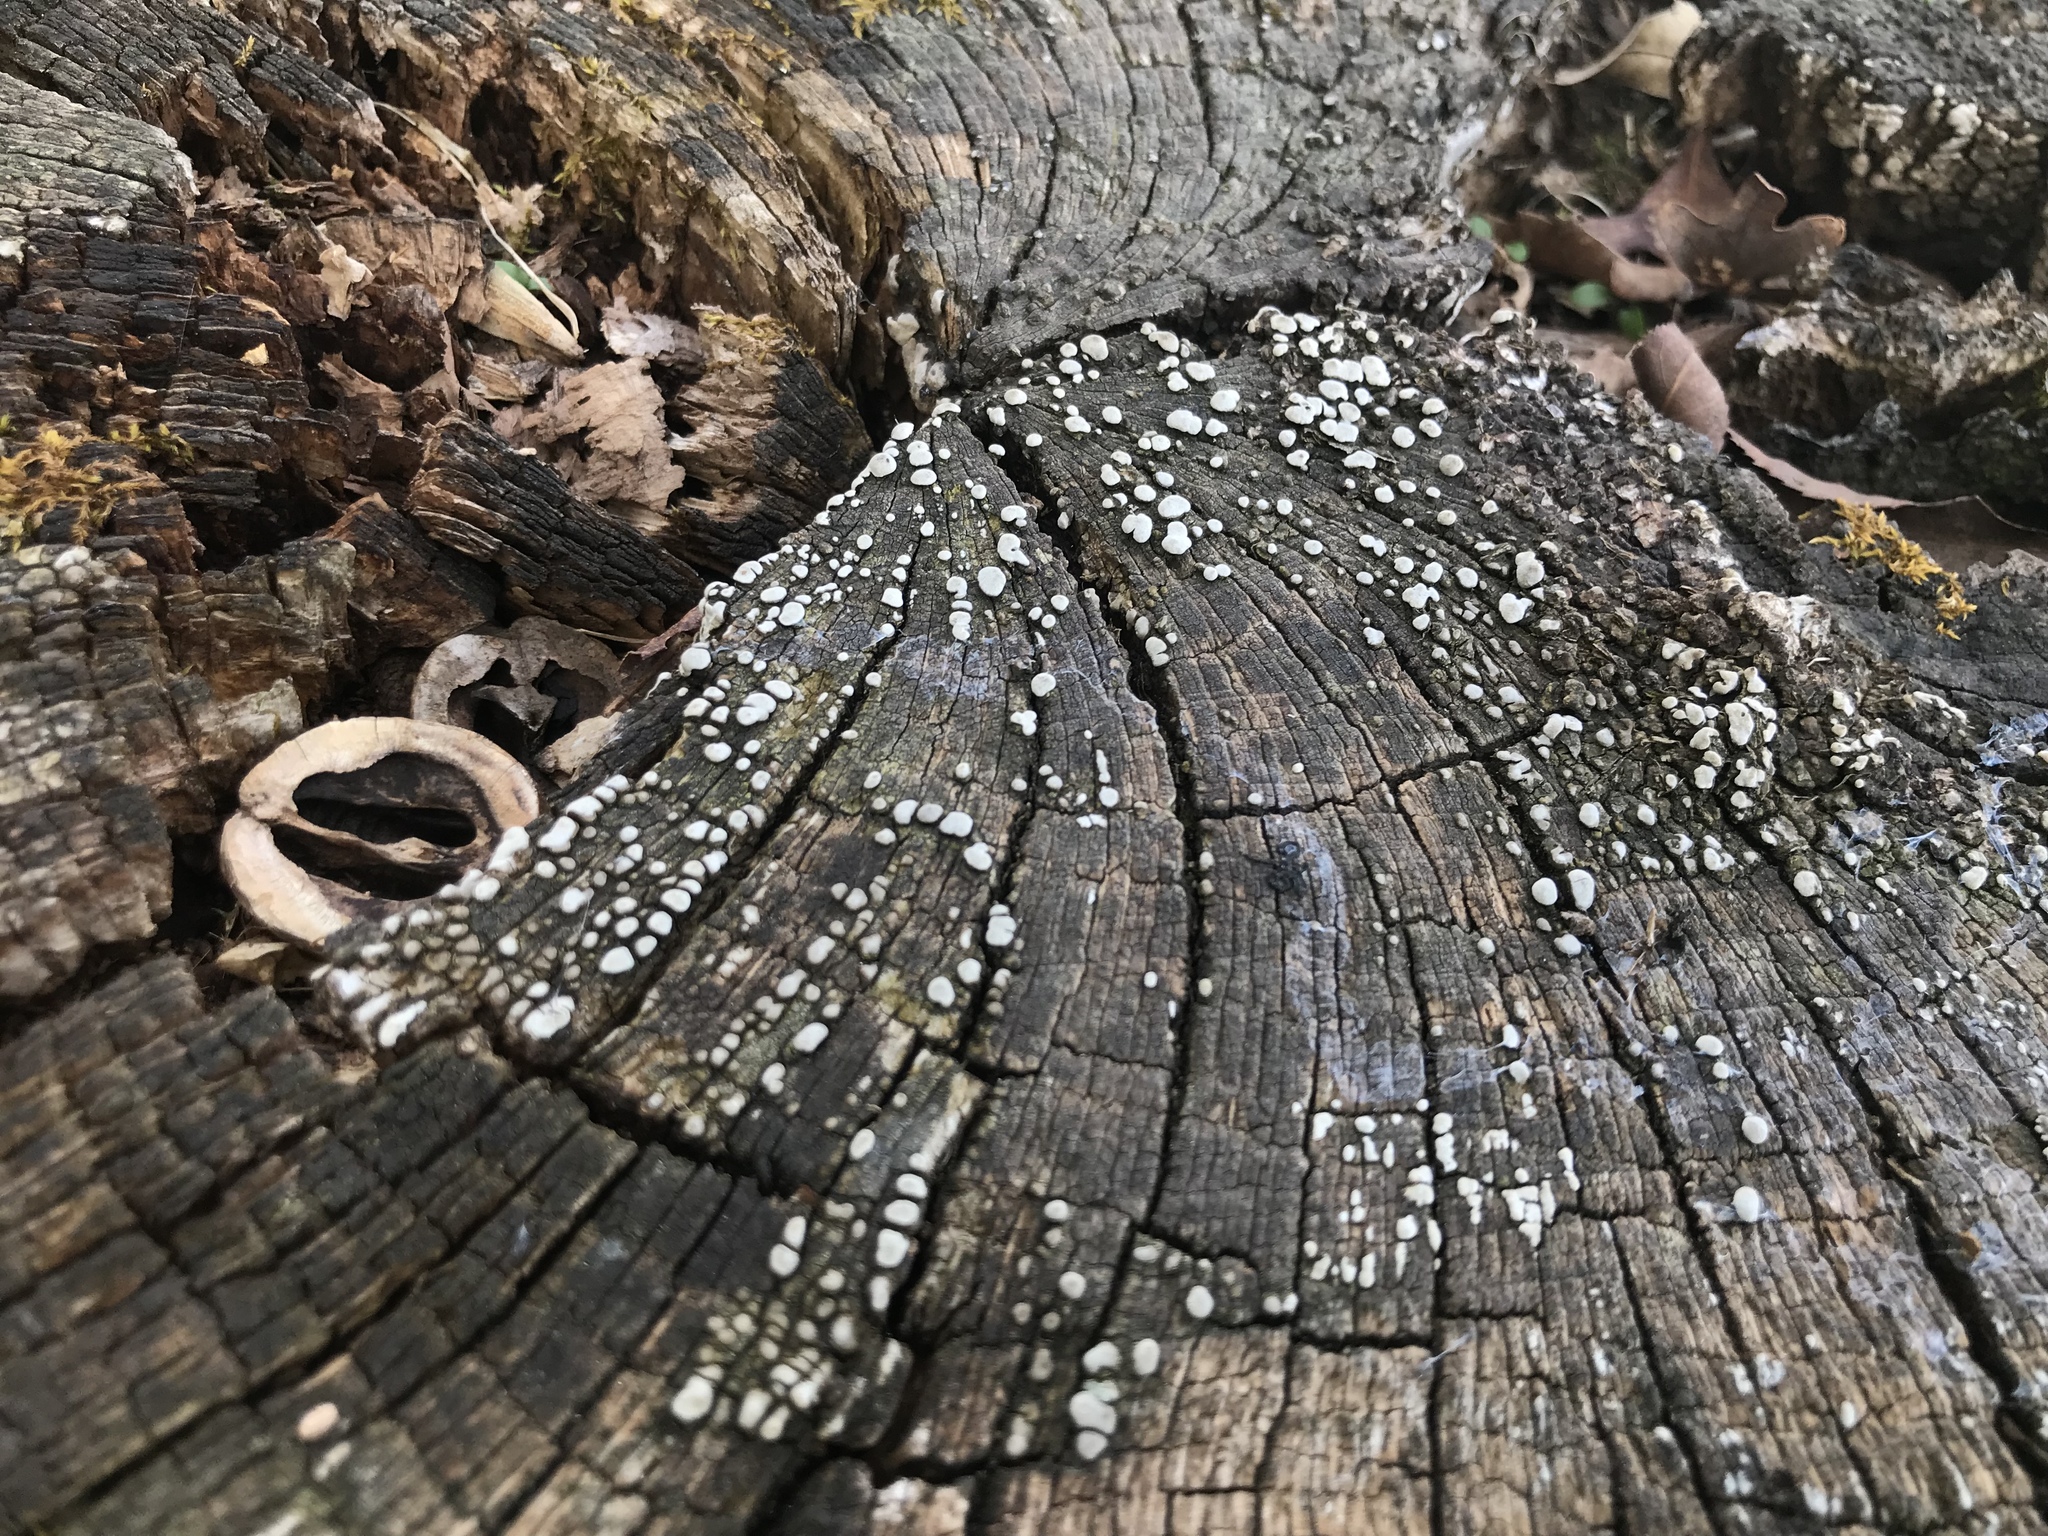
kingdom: Fungi
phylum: Basidiomycota
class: Agaricomycetes
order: Russulales
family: Stereaceae
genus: Xylobolus
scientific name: Xylobolus frustulatus
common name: Ceramic parchment
